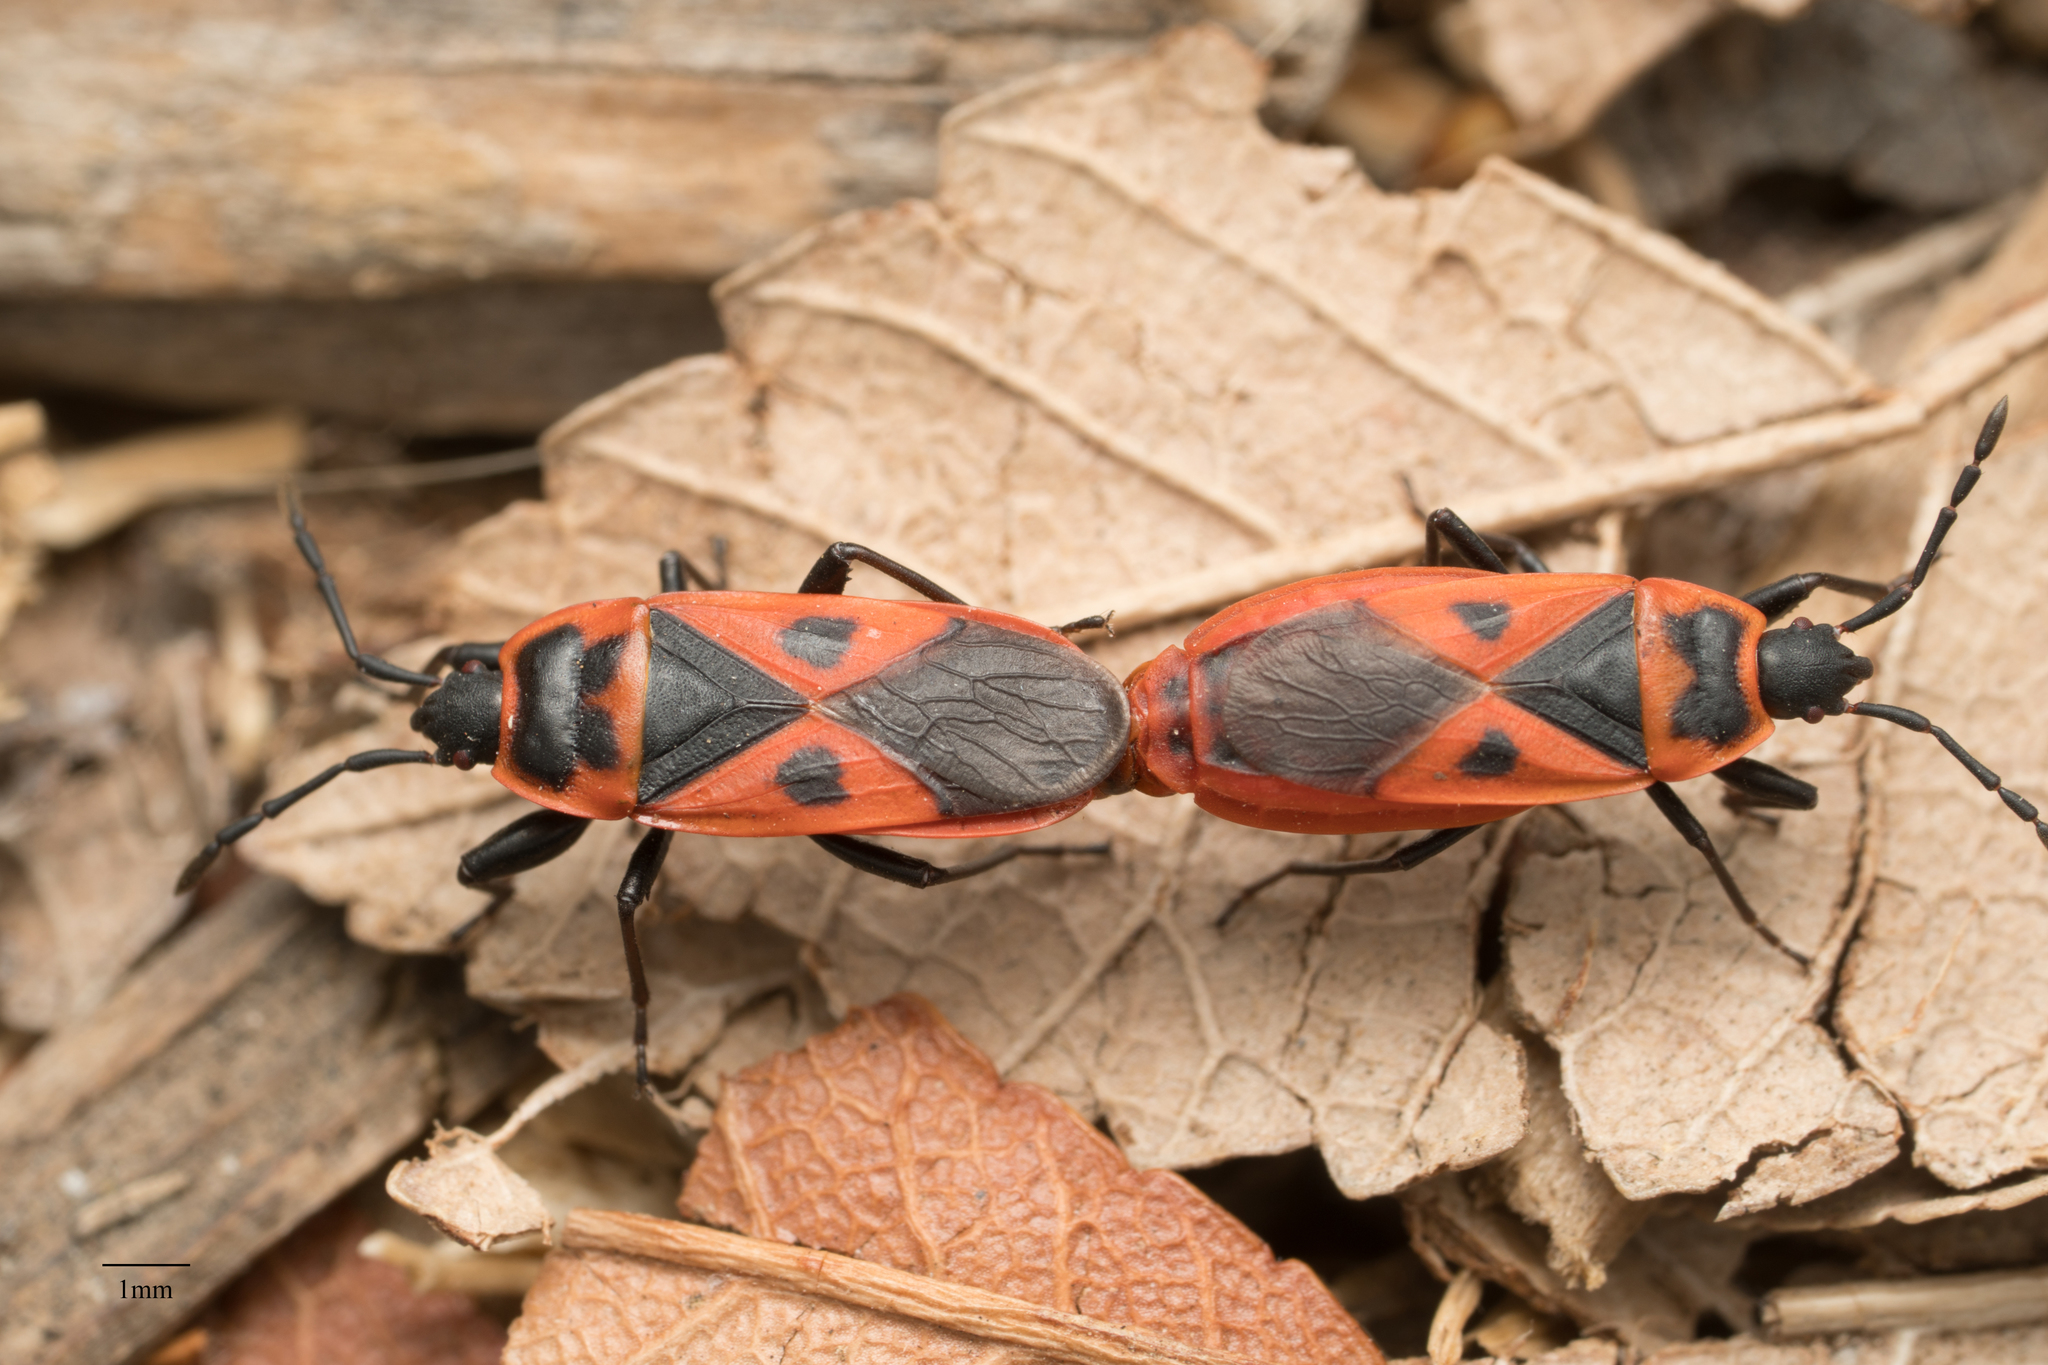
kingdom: Animalia
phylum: Arthropoda
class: Insecta
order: Hemiptera
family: Pyrrhocoridae
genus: Scantius
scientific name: Scantius aegyptius
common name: Red bug
